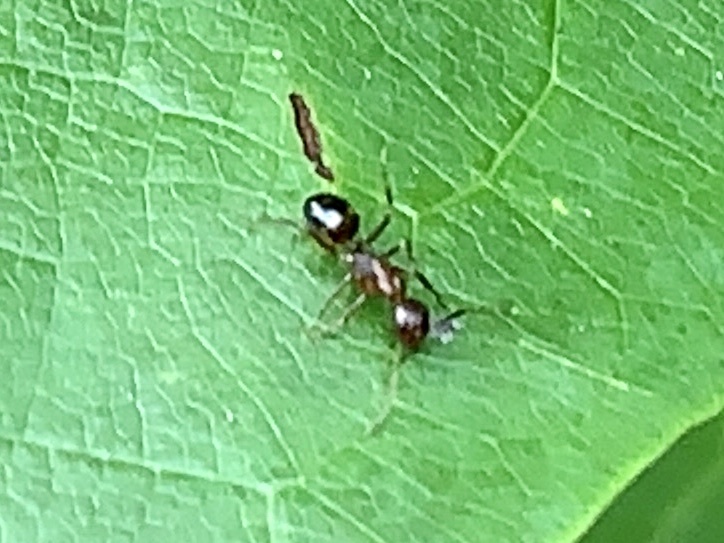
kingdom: Animalia
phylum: Arthropoda
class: Insecta
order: Hymenoptera
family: Formicidae
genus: Camponotus
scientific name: Camponotus subbarbatus
